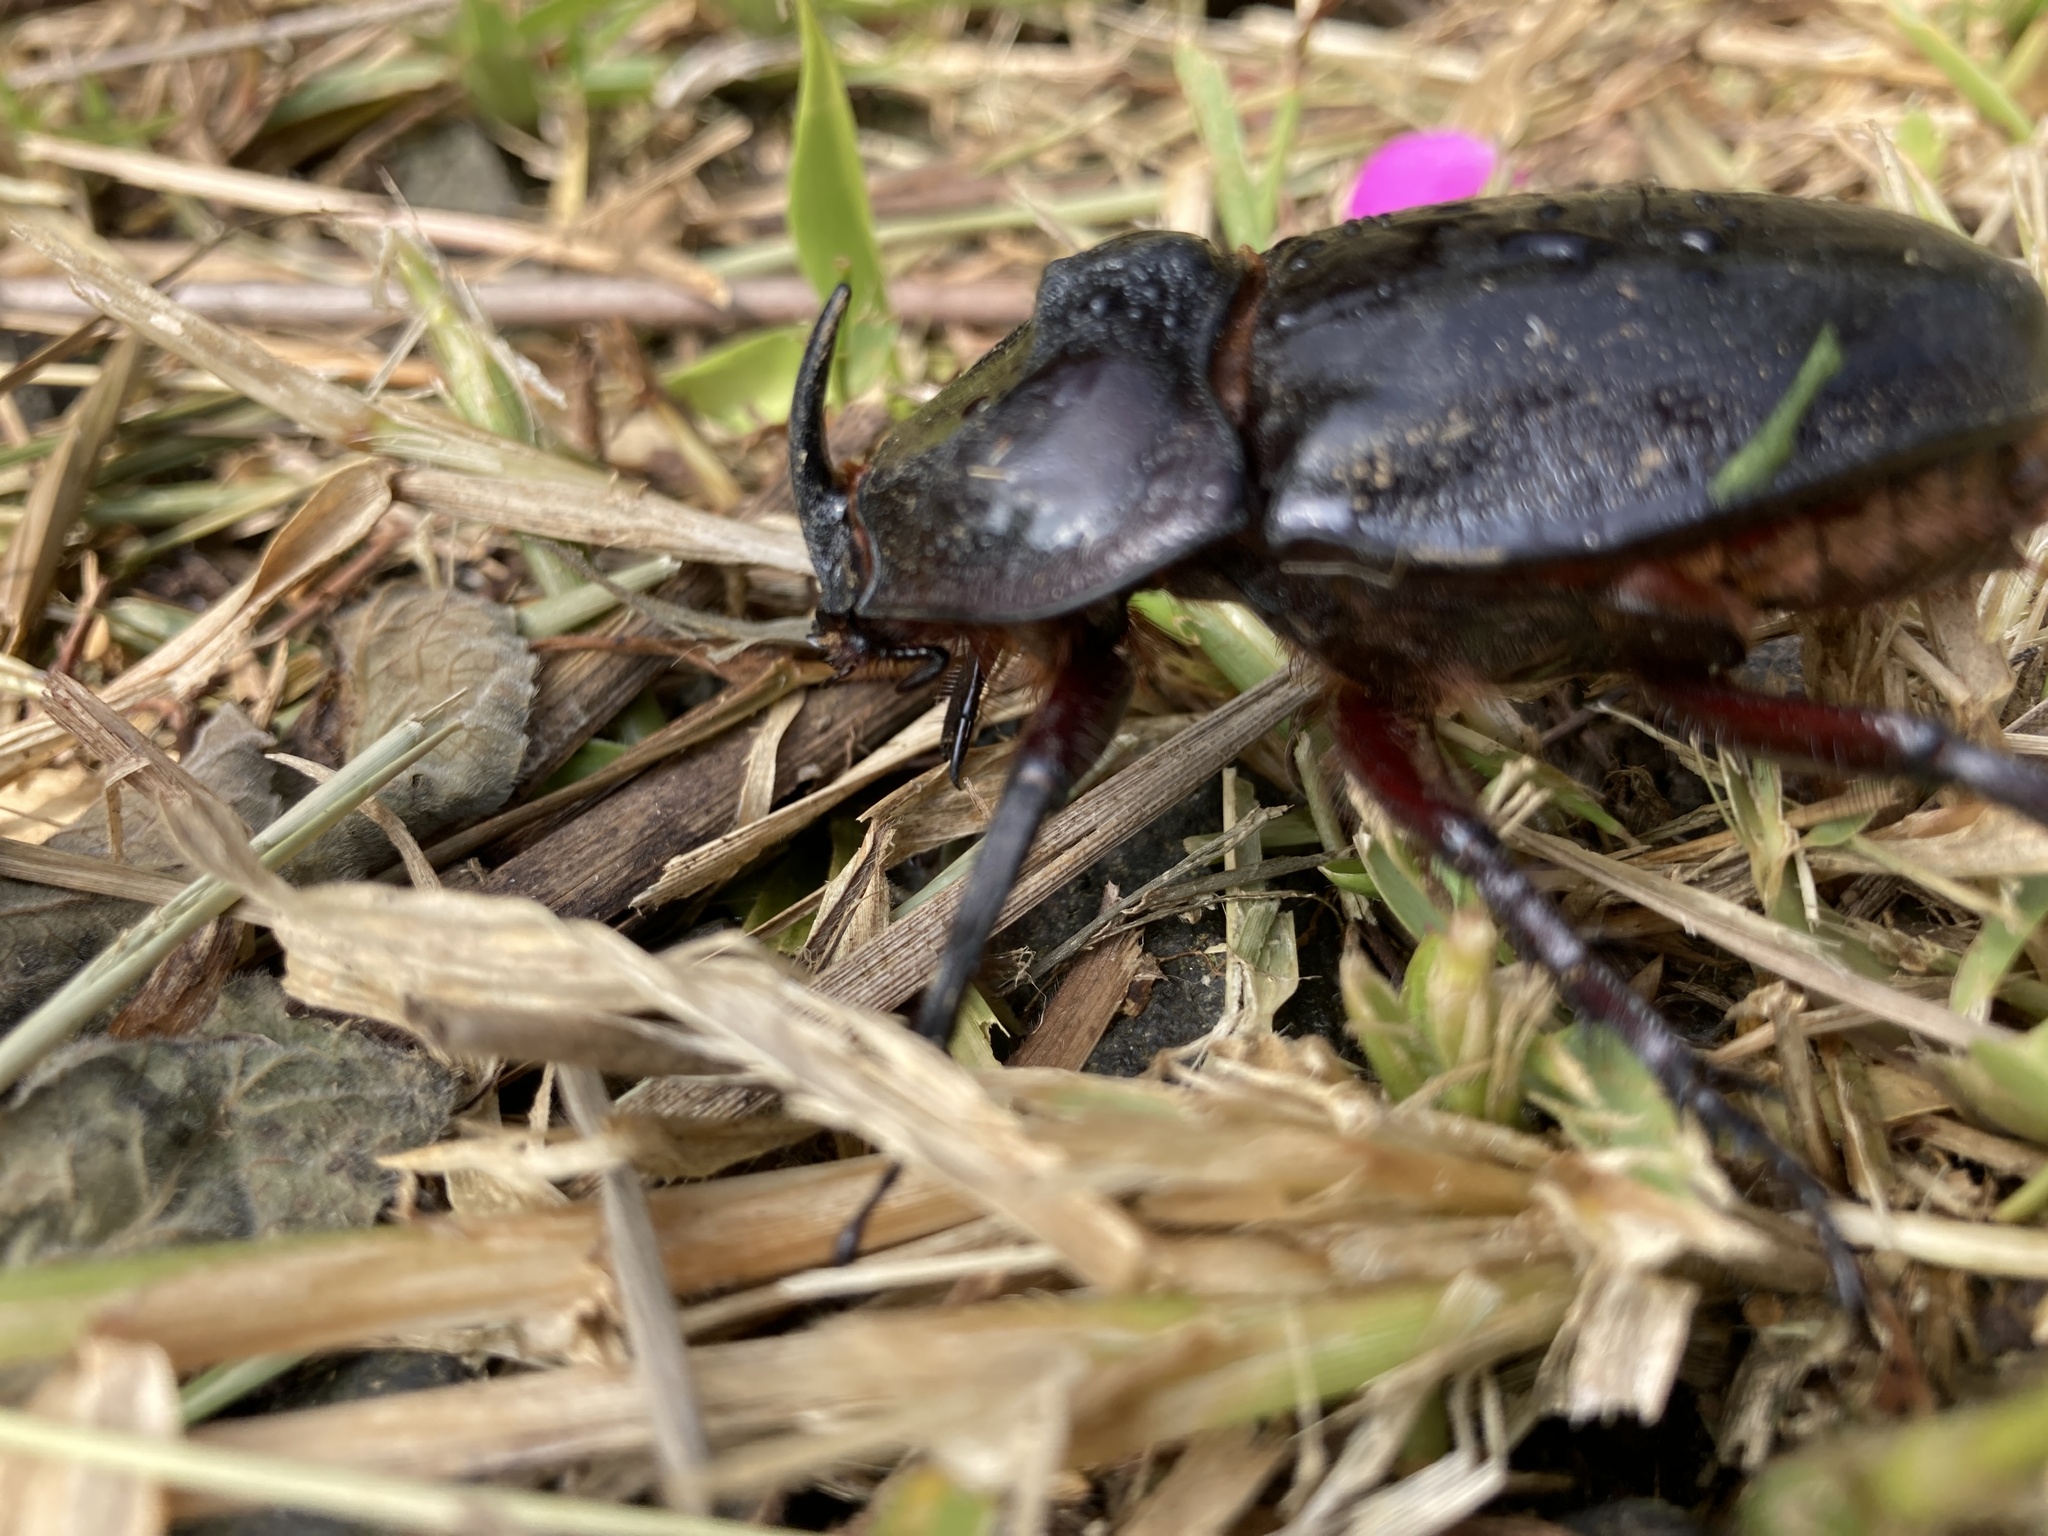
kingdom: Animalia
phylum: Arthropoda
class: Insecta
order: Coleoptera
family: Scarabaeidae
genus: Enema
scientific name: Enema pan
